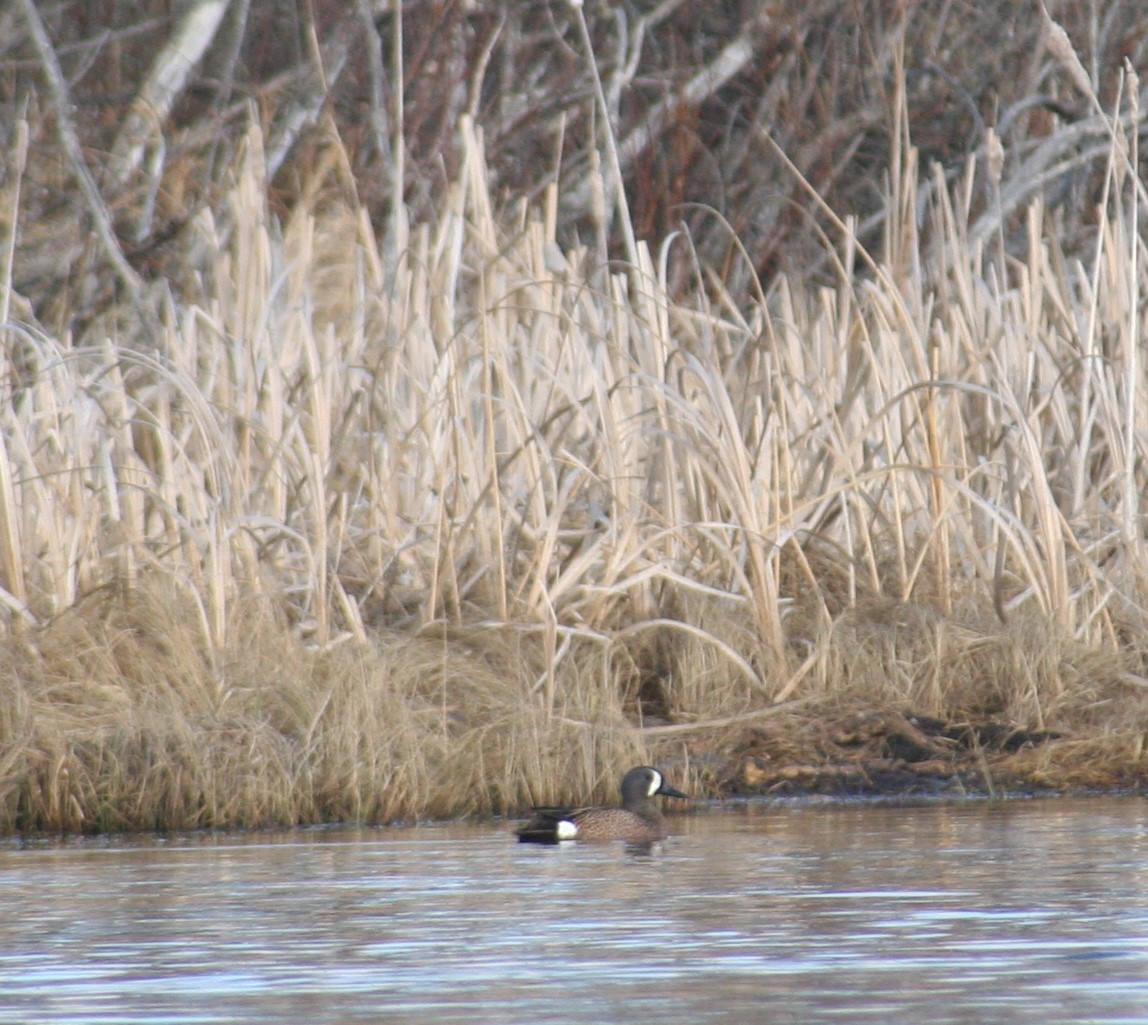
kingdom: Animalia
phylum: Chordata
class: Aves
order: Anseriformes
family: Anatidae
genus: Spatula
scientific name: Spatula discors
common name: Blue-winged teal
